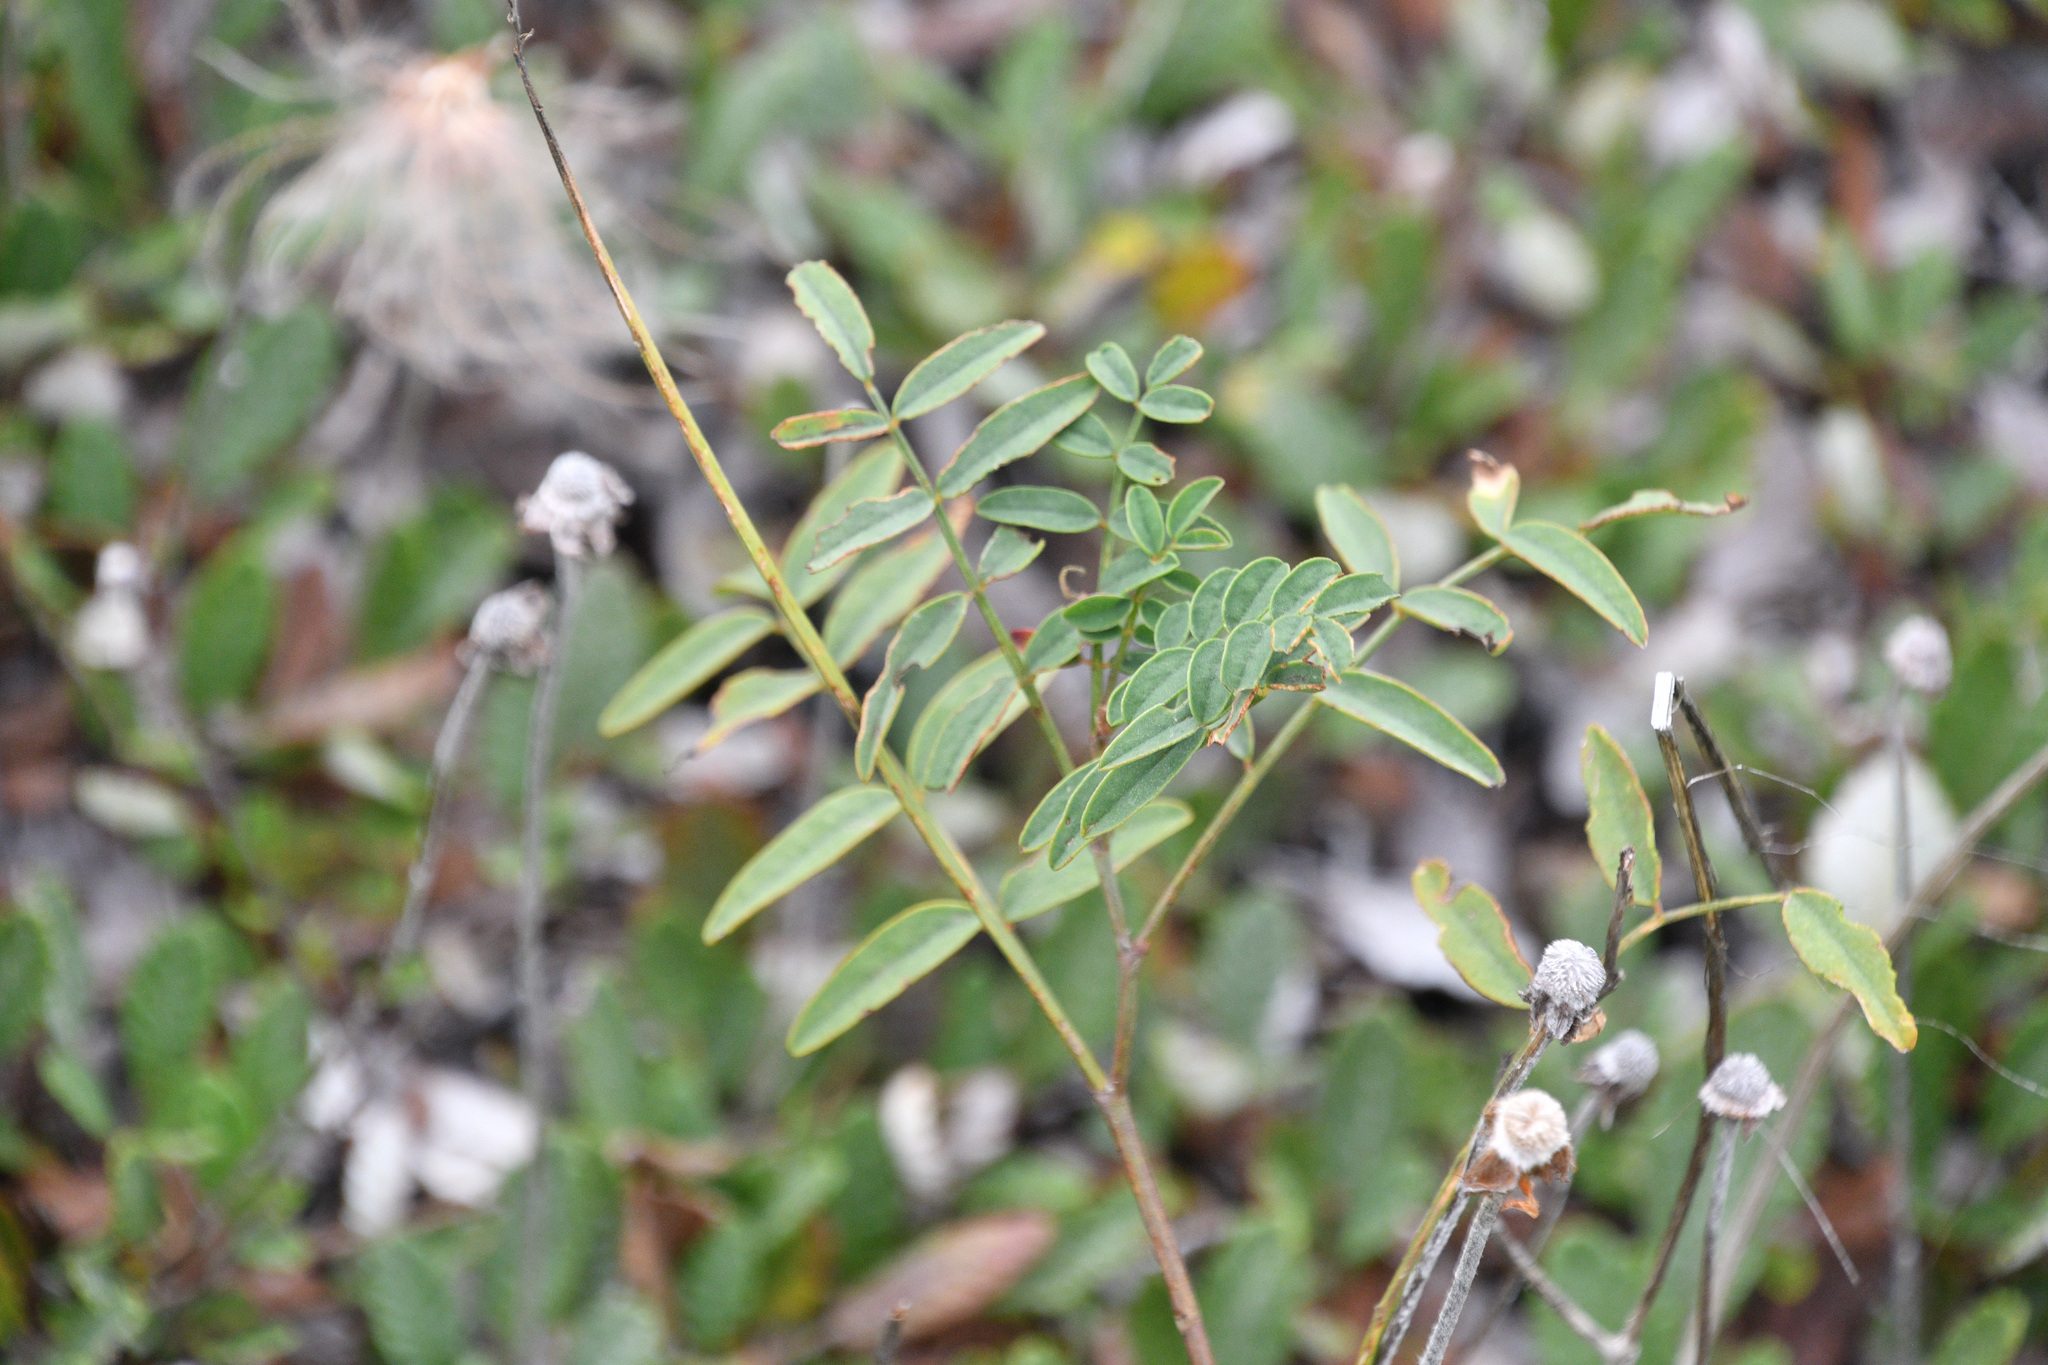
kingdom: Plantae
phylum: Tracheophyta
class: Magnoliopsida
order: Fabales
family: Fabaceae
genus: Hedysarum
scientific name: Hedysarum boreale
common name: Northern sweet-vetch
